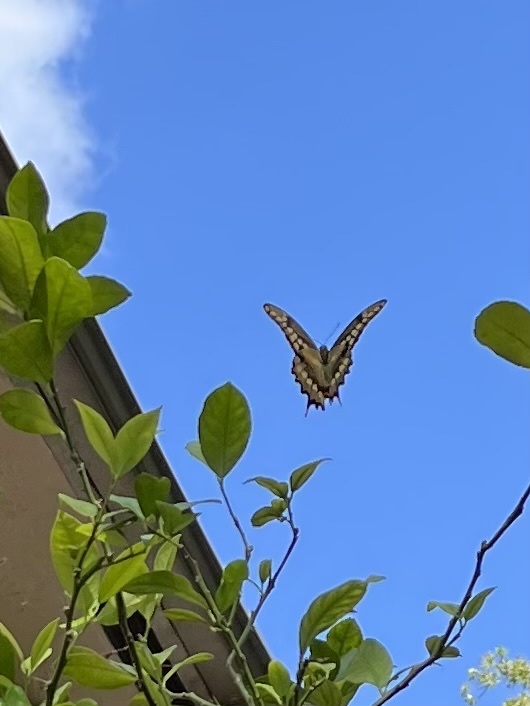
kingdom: Animalia
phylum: Arthropoda
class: Insecta
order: Lepidoptera
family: Papilionidae
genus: Papilio
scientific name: Papilio cresphontes
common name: Giant swallowtail
